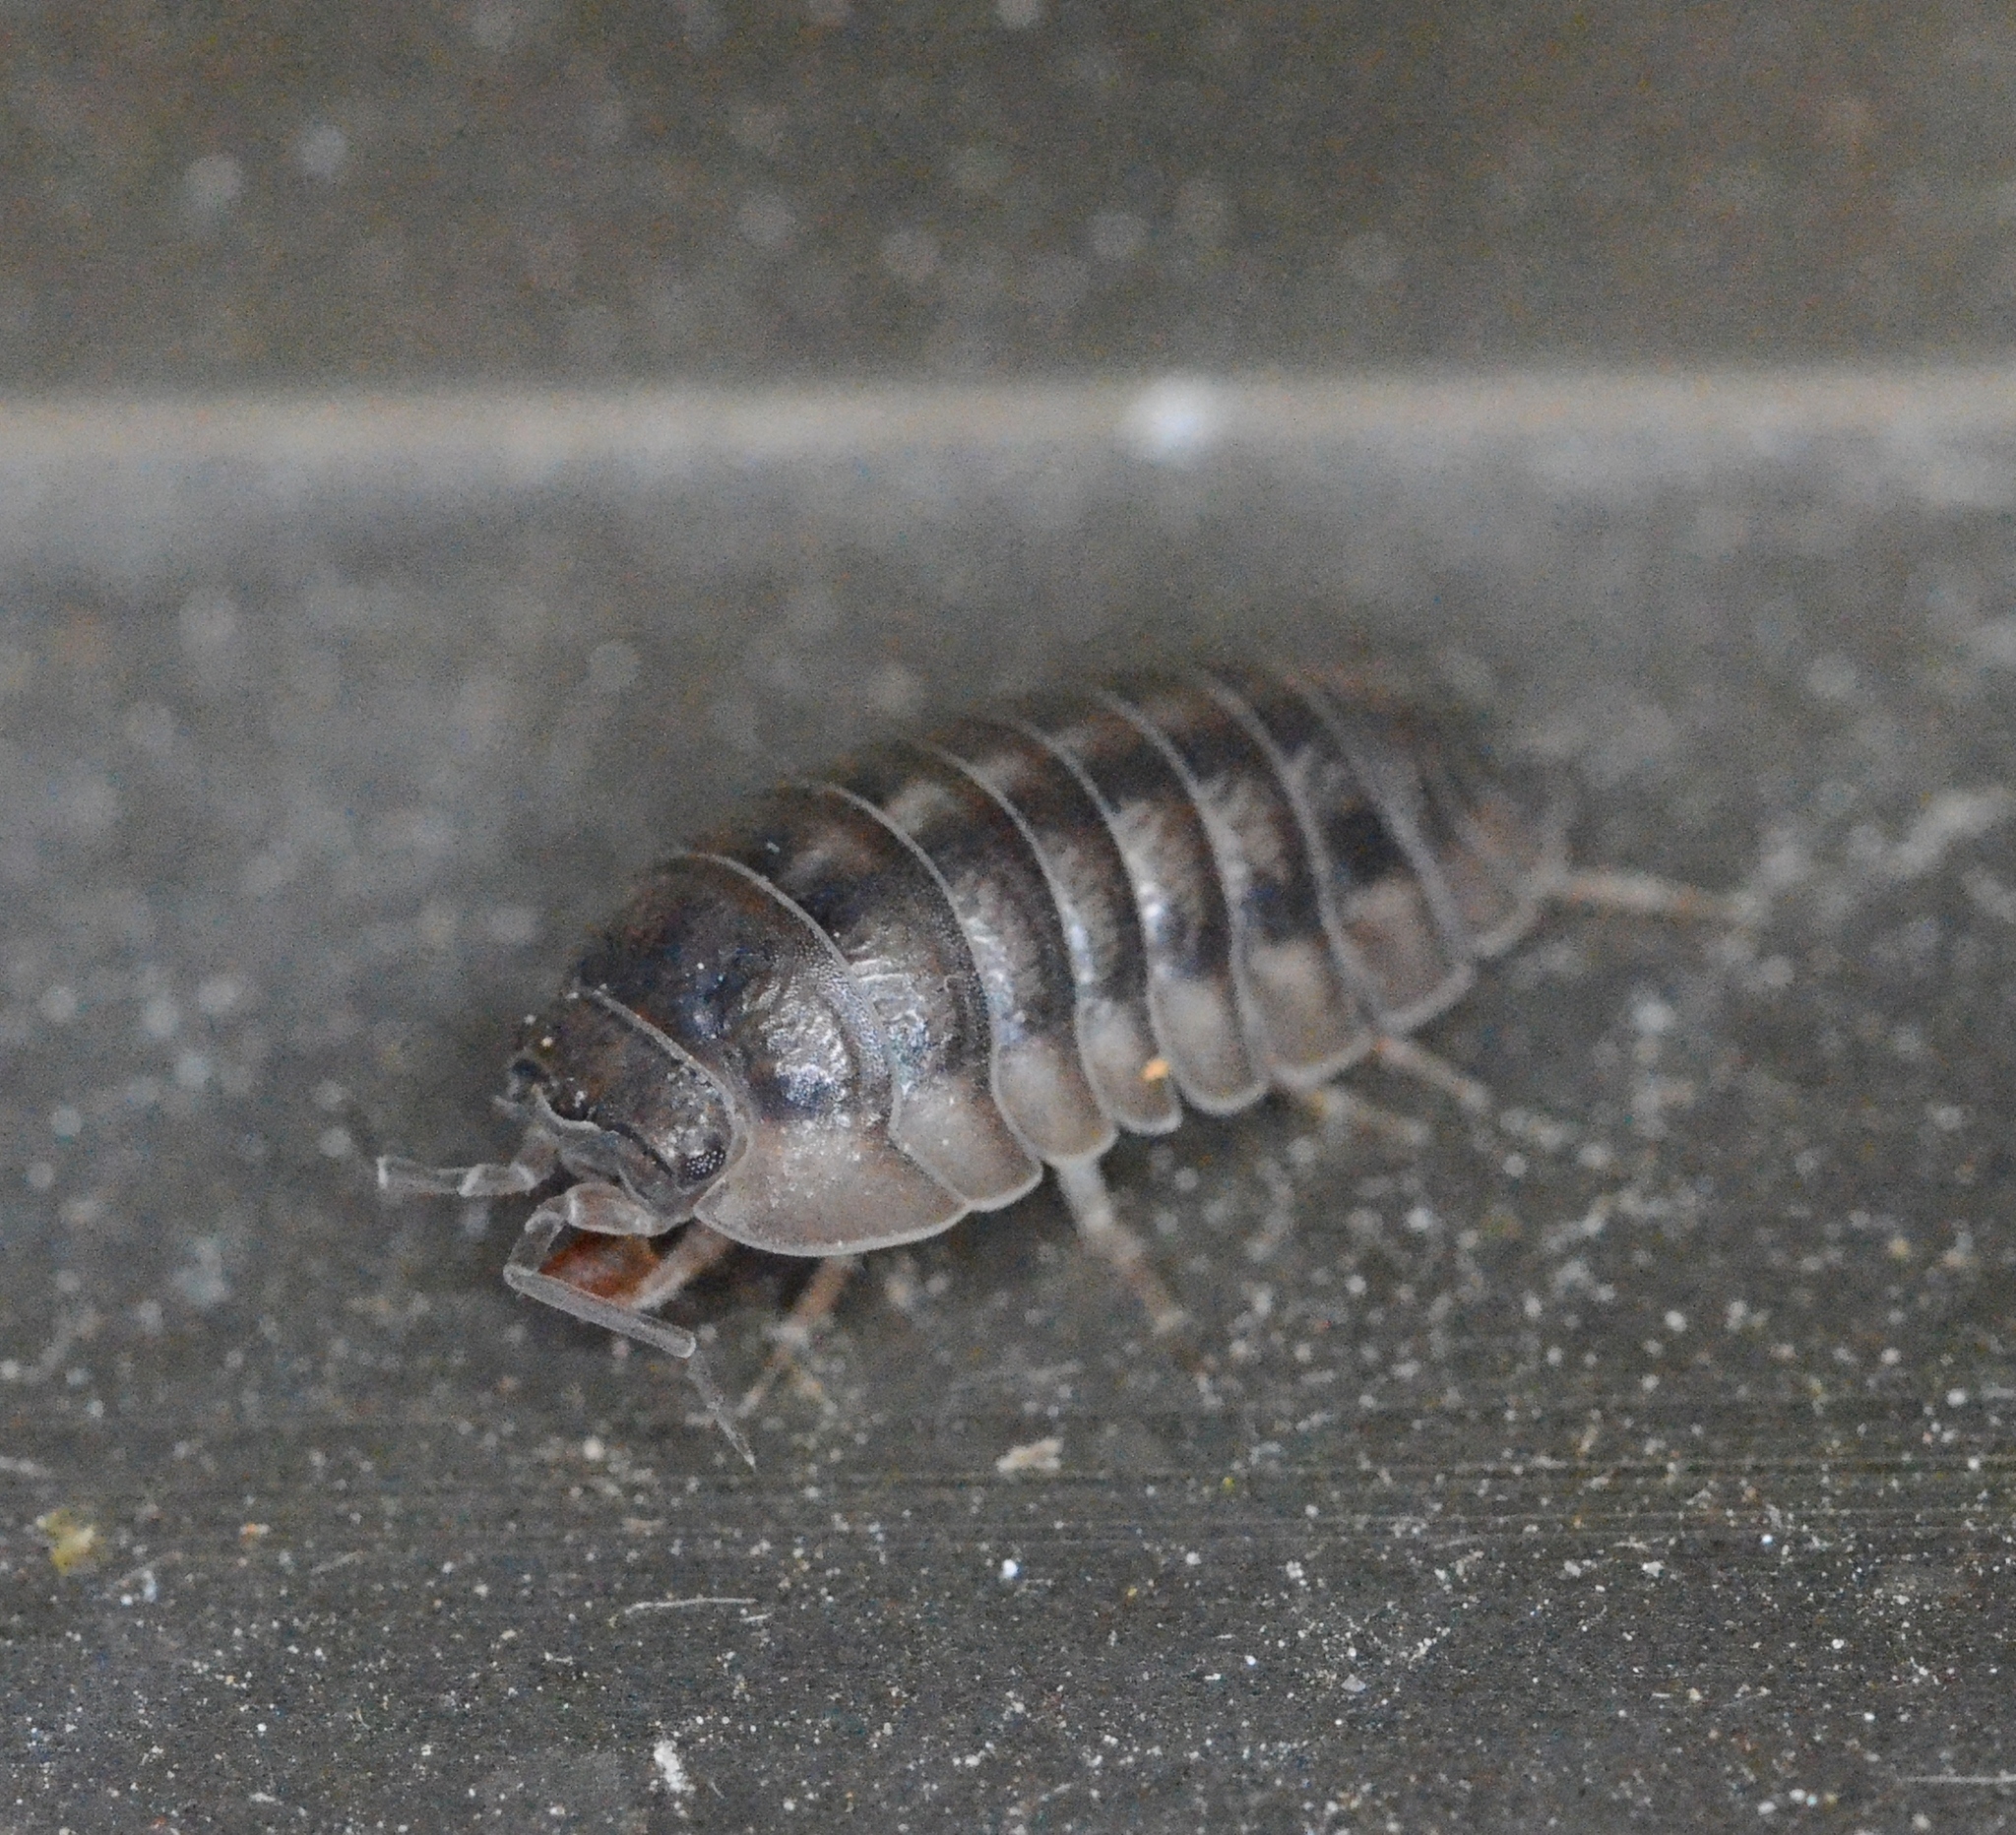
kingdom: Animalia
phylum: Arthropoda
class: Malacostraca
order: Isopoda
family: Armadillidiidae
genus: Armadillidium
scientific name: Armadillidium nasatum
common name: Isopod
